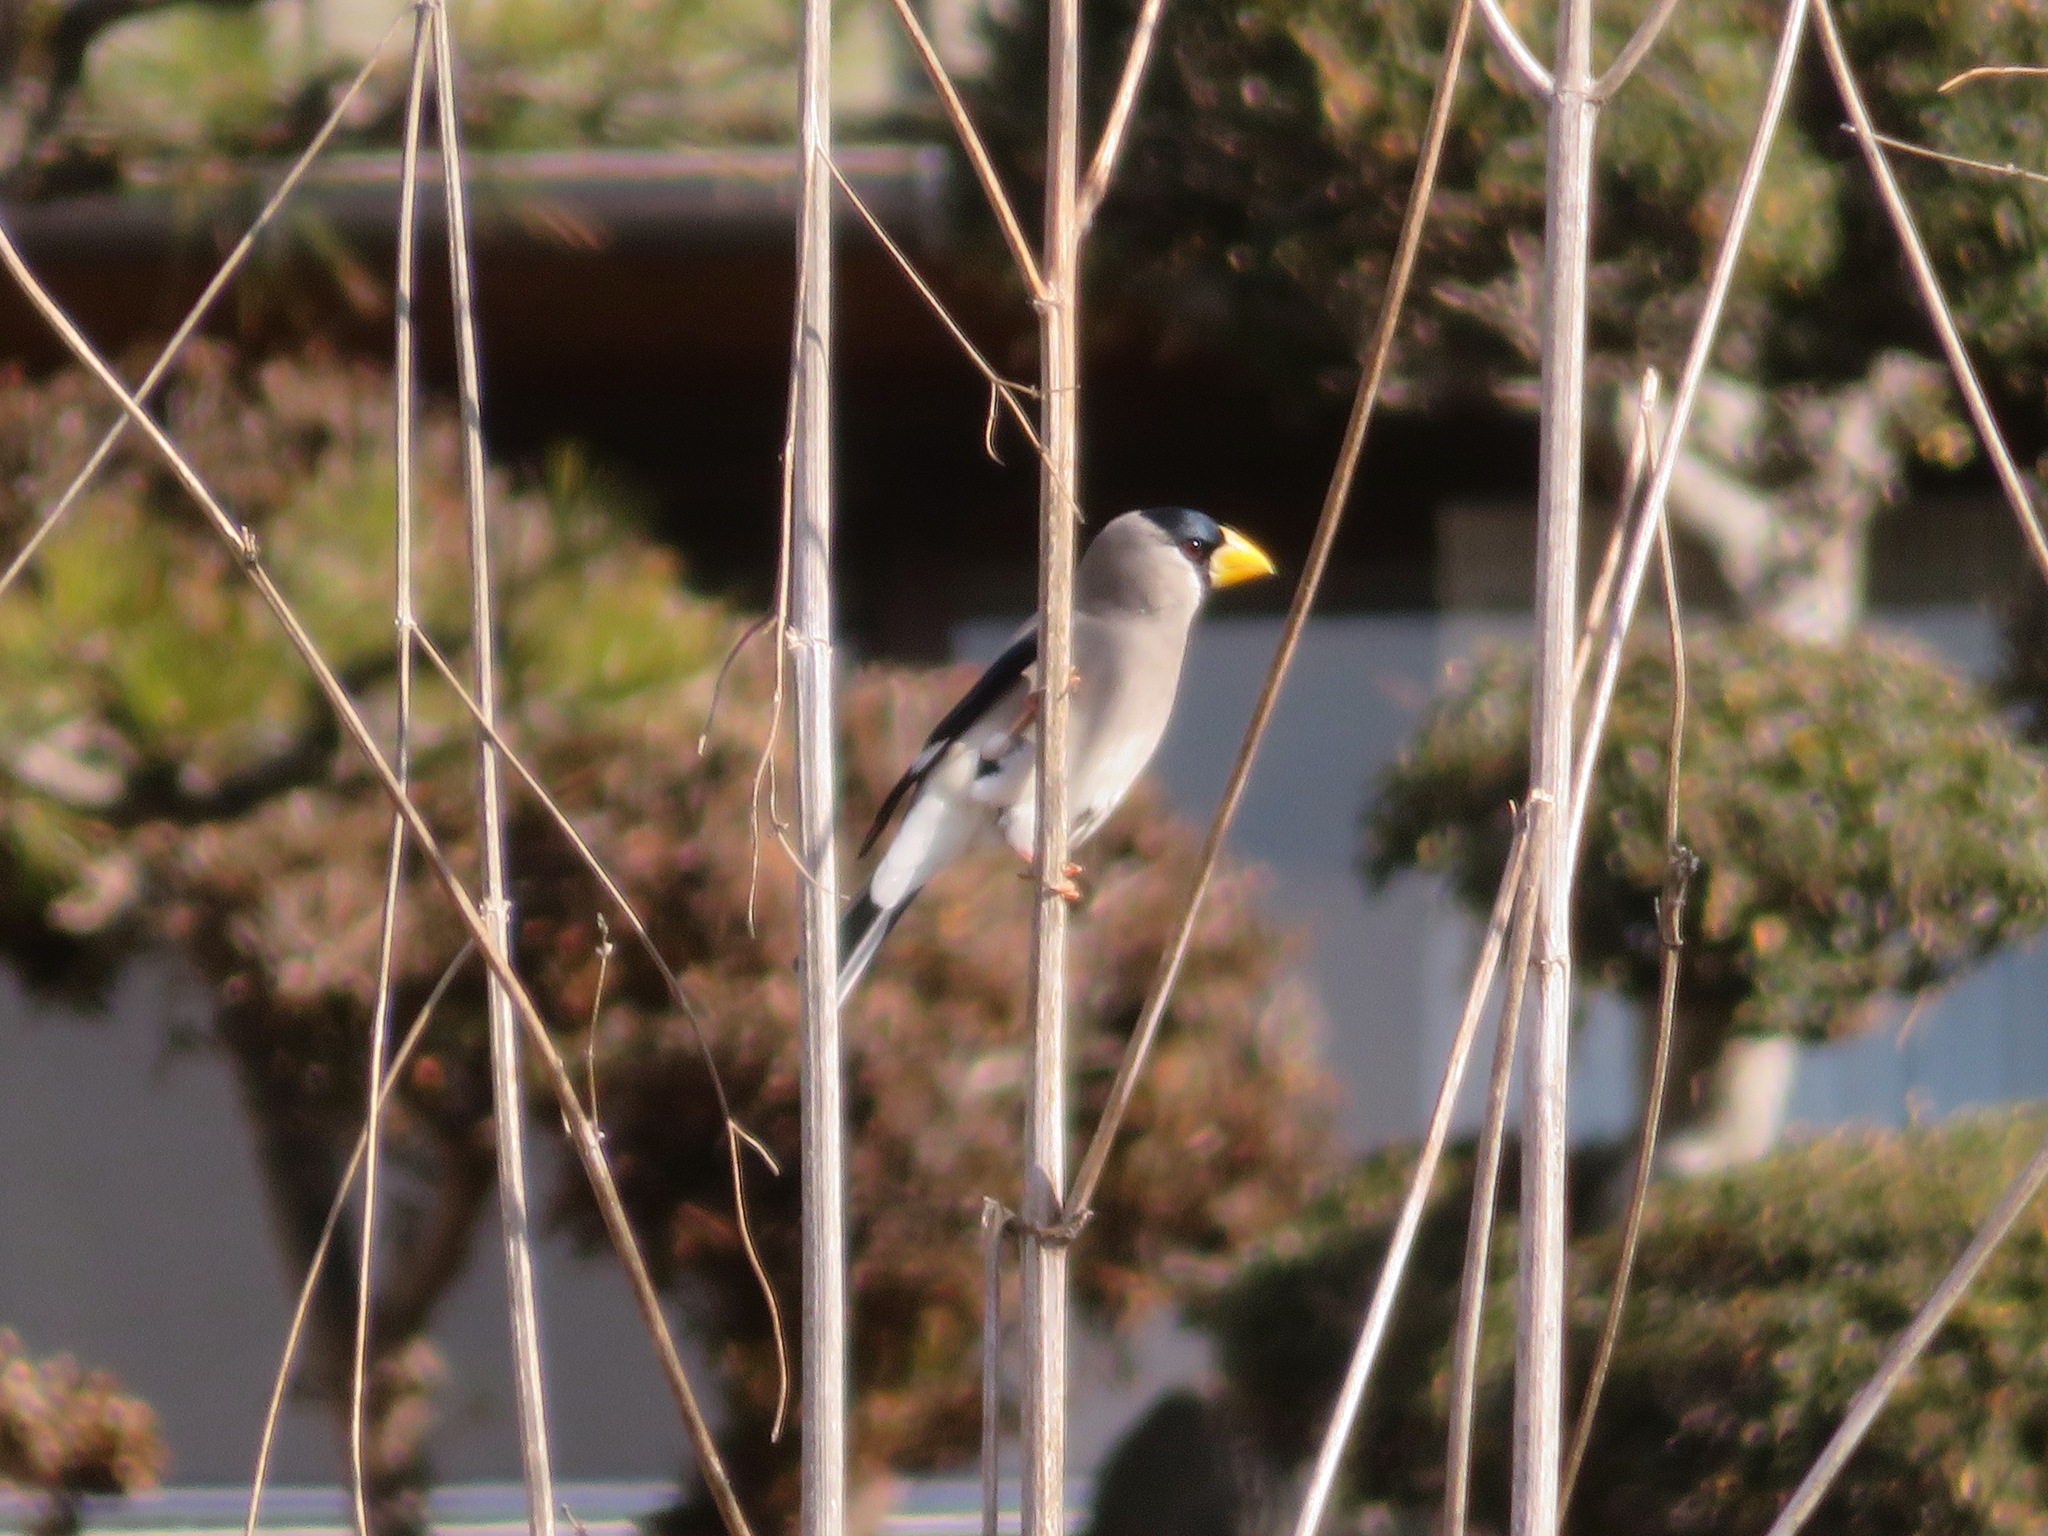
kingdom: Animalia
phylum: Chordata
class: Aves
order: Passeriformes
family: Fringillidae
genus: Eophona
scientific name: Eophona personata
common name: Japanese grosbeak
